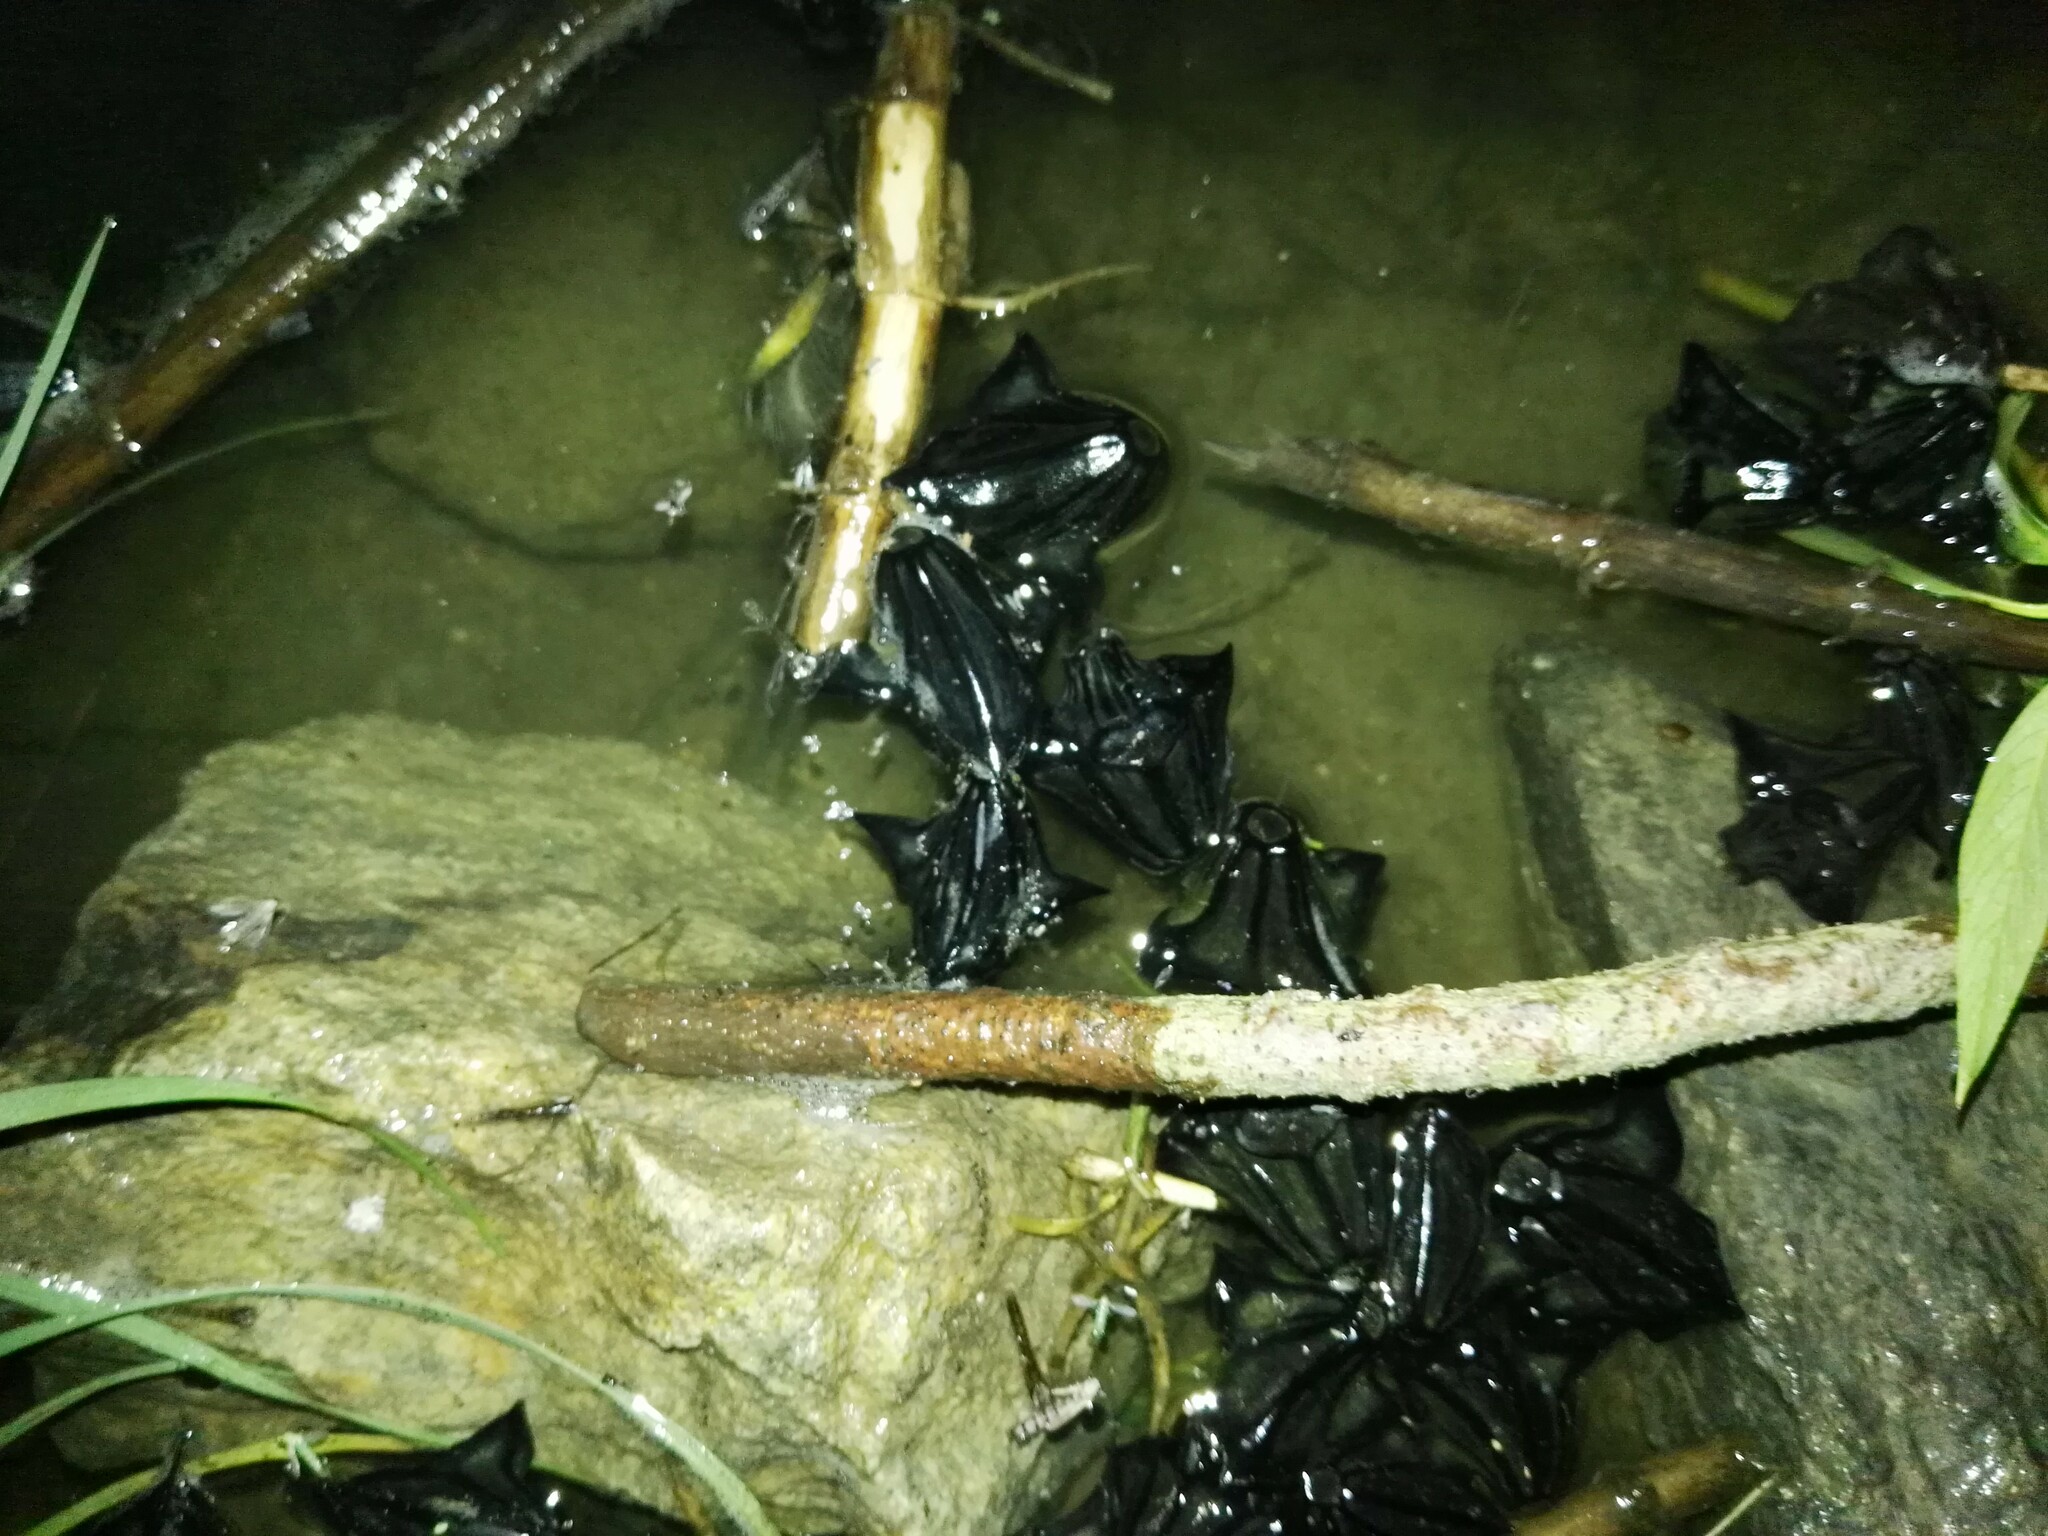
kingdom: Plantae
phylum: Tracheophyta
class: Magnoliopsida
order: Myrtales
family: Lythraceae
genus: Trapa
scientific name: Trapa natans
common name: Water chestnut
